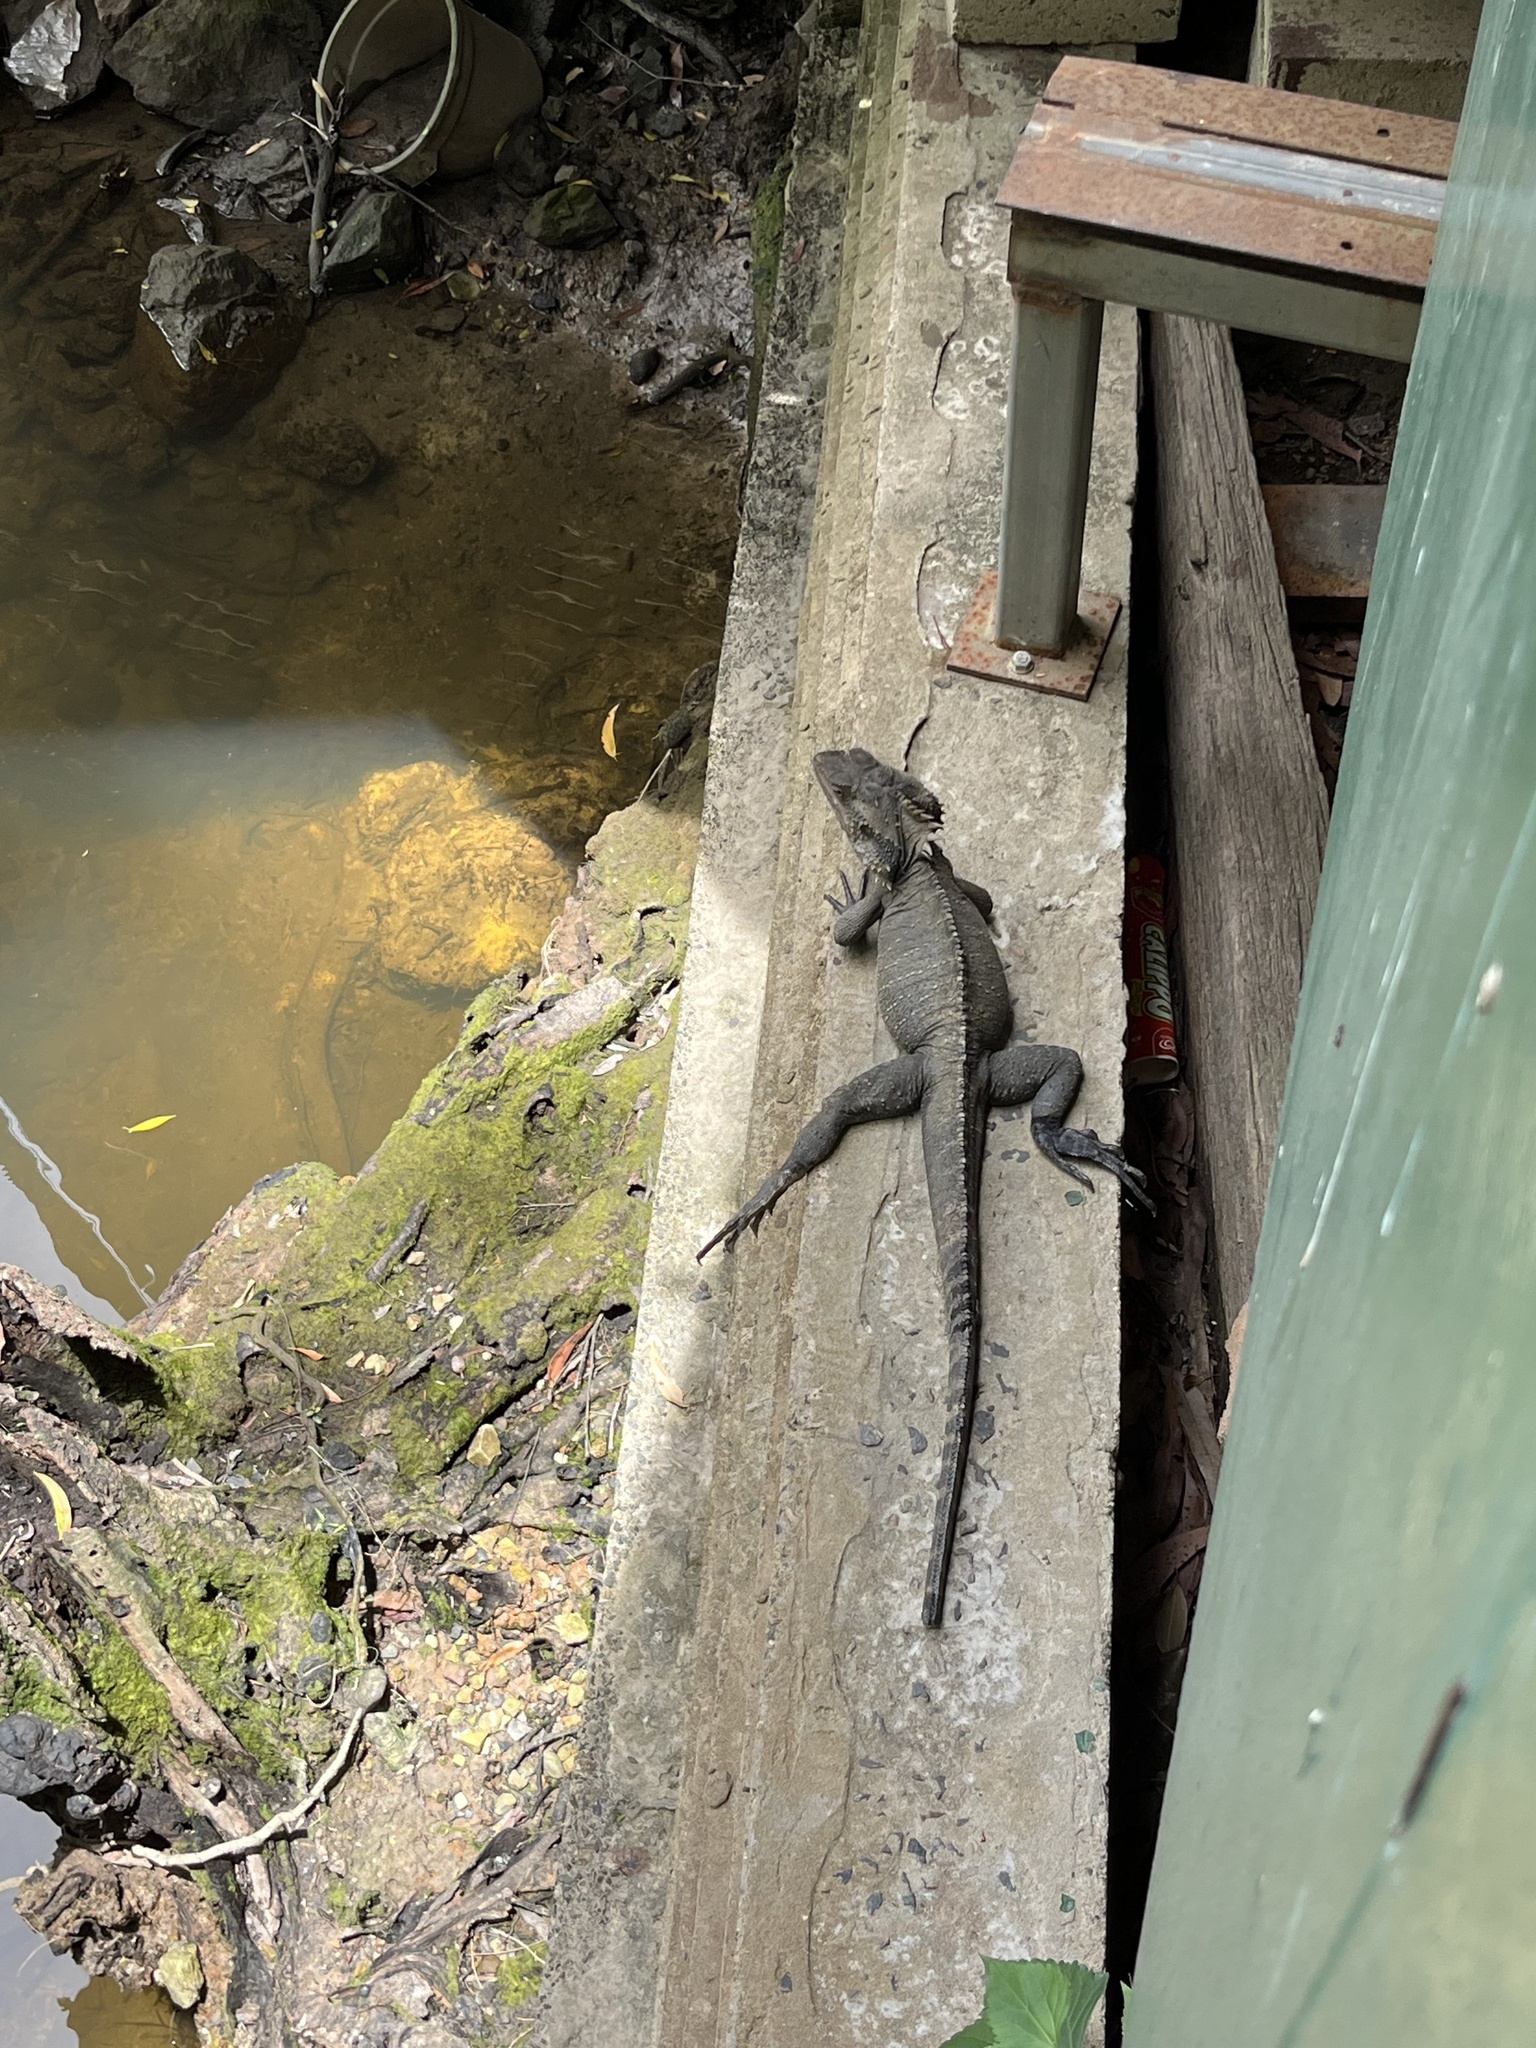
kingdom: Animalia
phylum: Chordata
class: Squamata
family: Agamidae
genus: Intellagama
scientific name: Intellagama lesueurii
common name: Eastern water dragon
